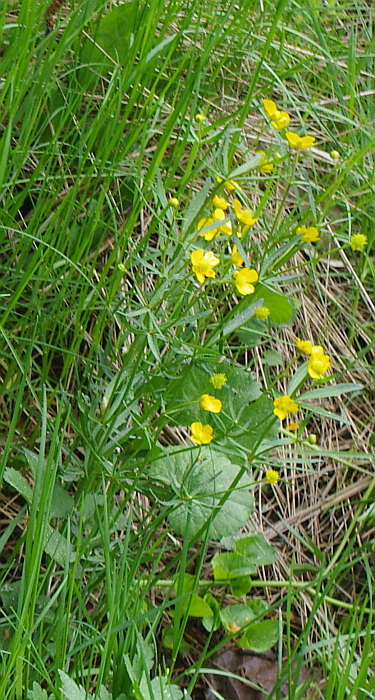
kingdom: Plantae
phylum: Tracheophyta
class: Magnoliopsida
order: Ranunculales
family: Ranunculaceae
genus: Ranunculus
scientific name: Ranunculus cassubicus
